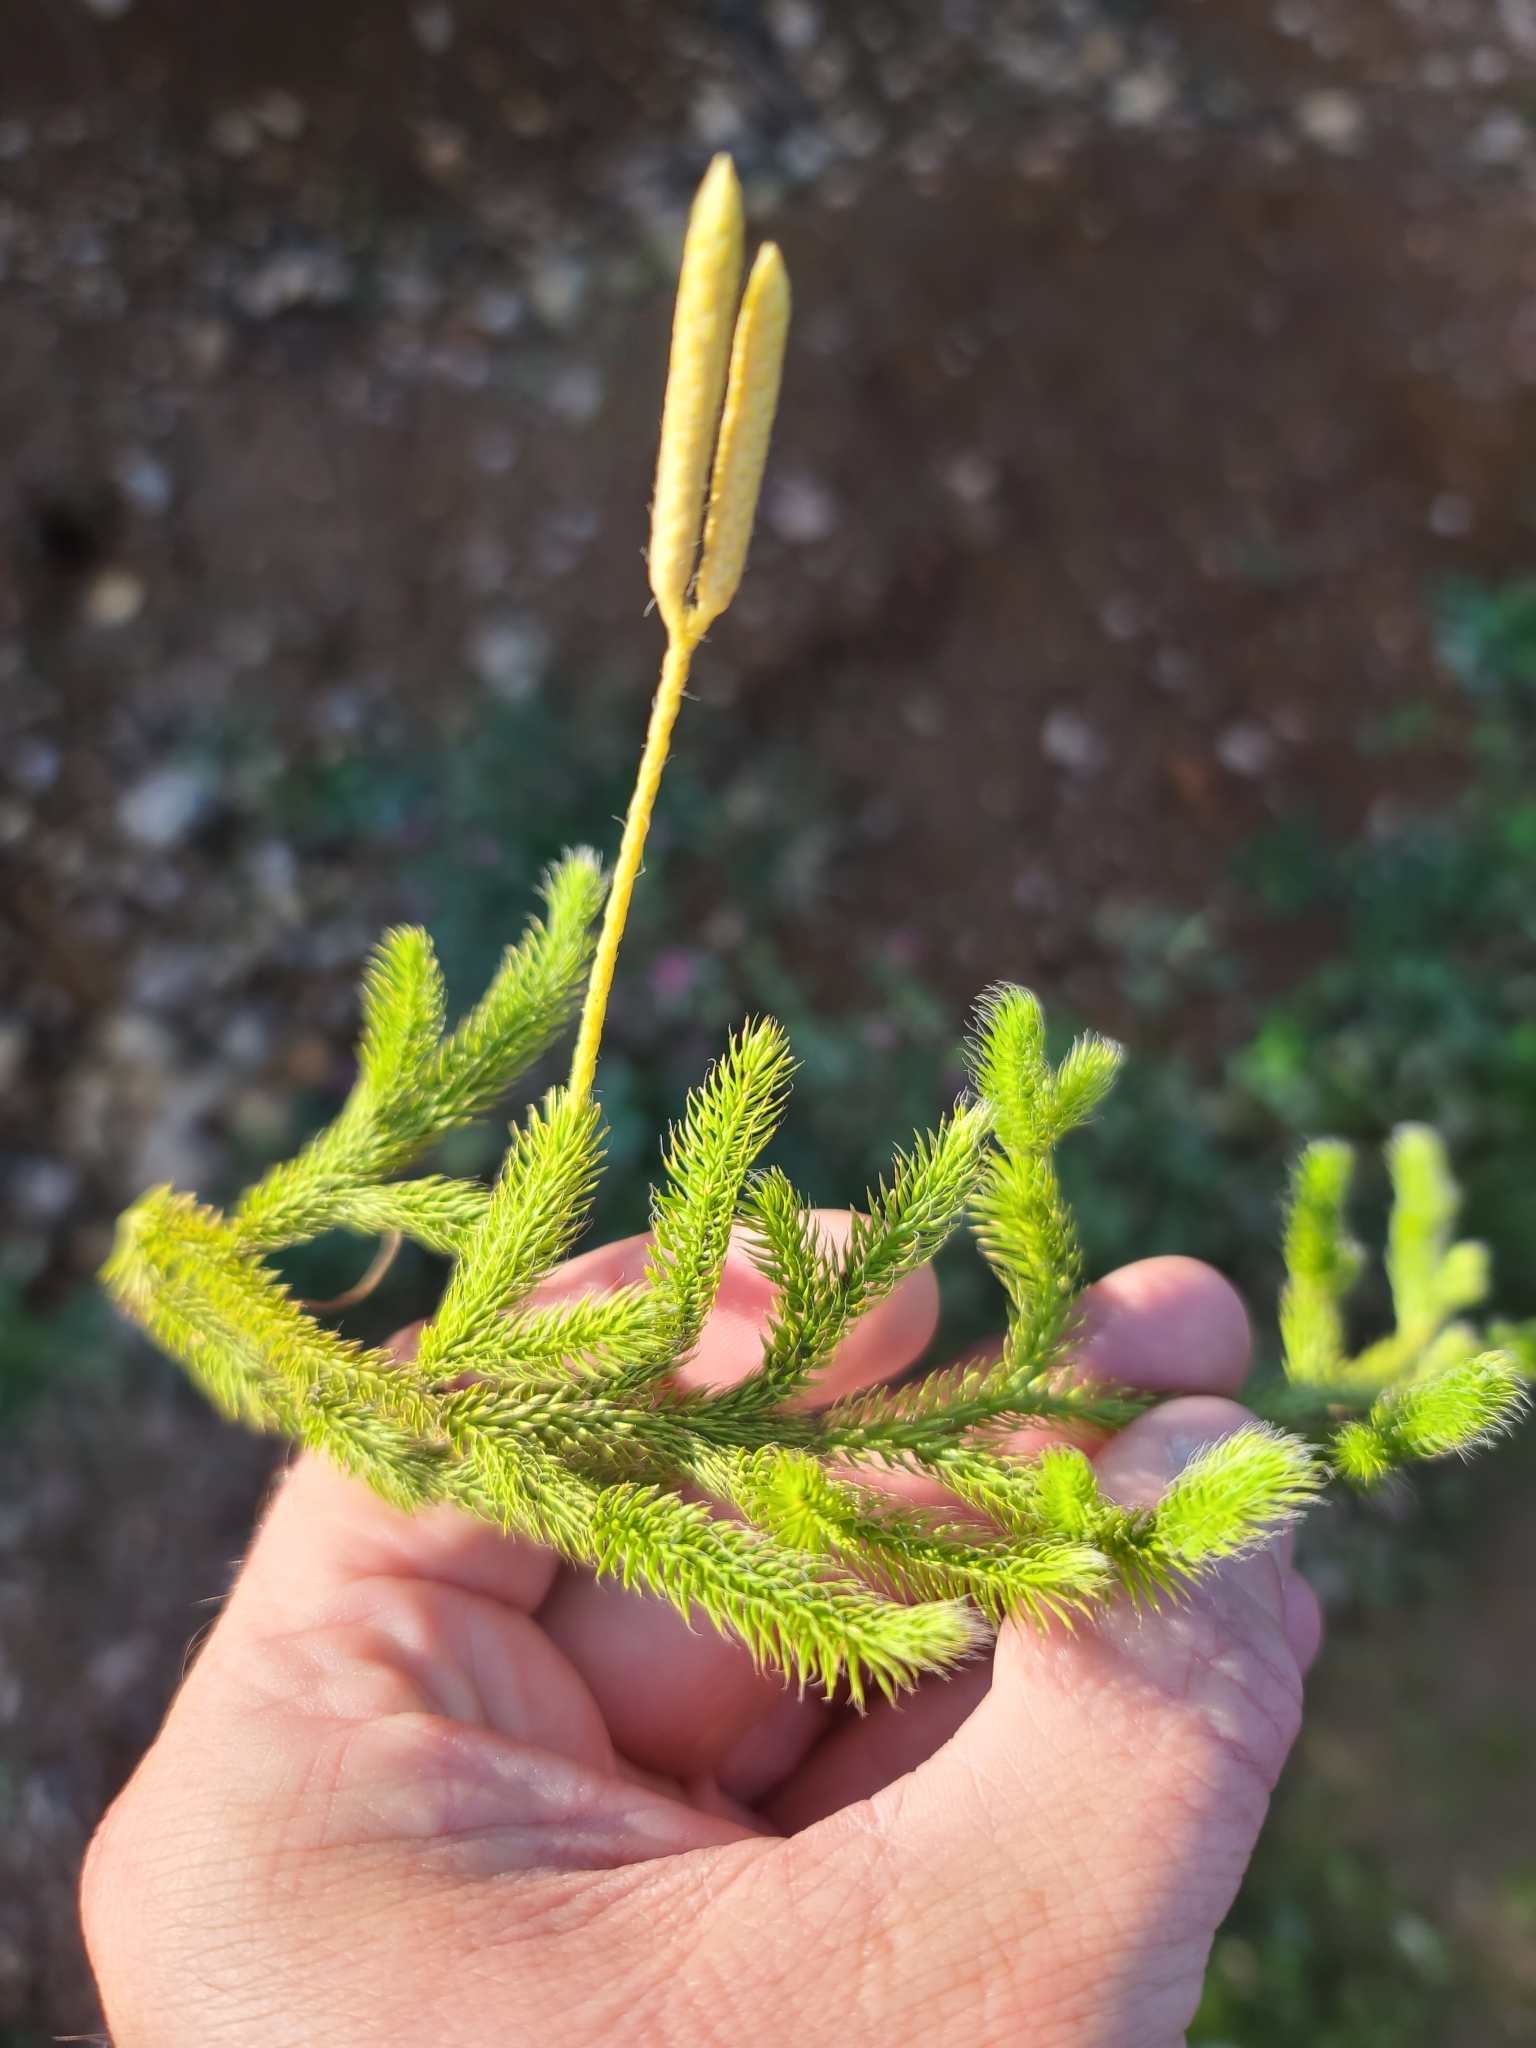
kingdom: Plantae
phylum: Tracheophyta
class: Lycopodiopsida
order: Lycopodiales
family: Lycopodiaceae
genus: Lycopodium
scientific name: Lycopodium clavatum
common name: Stag's-horn clubmoss
